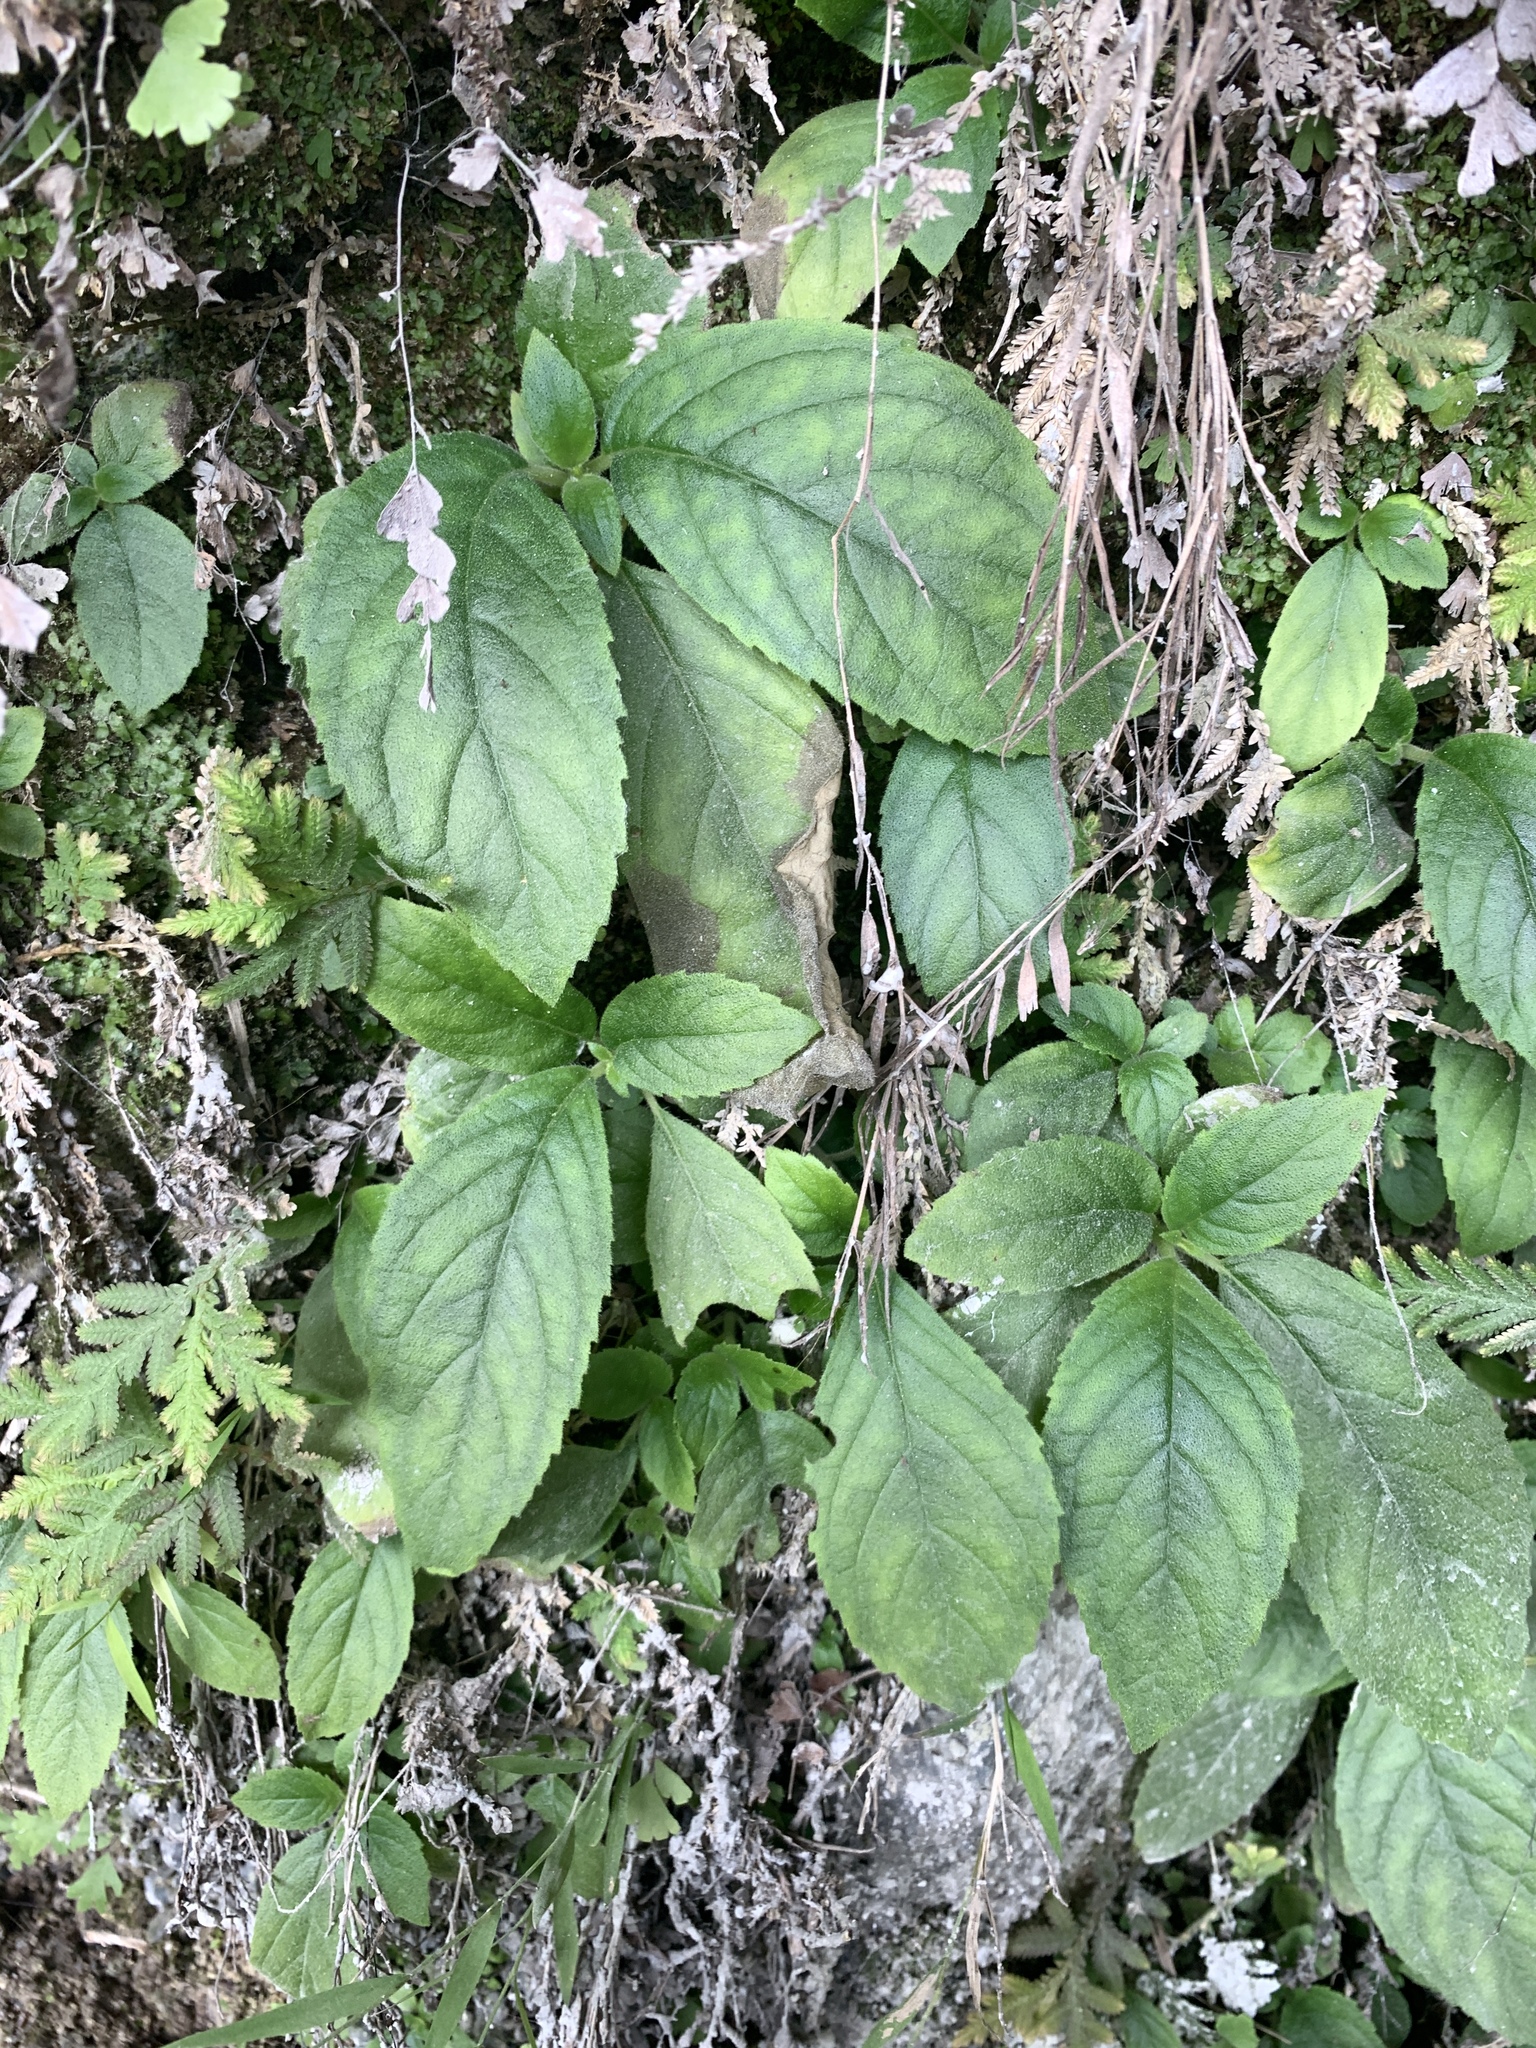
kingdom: Plantae
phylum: Tracheophyta
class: Magnoliopsida
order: Lamiales
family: Gesneriaceae
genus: Titanotrichum
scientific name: Titanotrichum oldhamii
